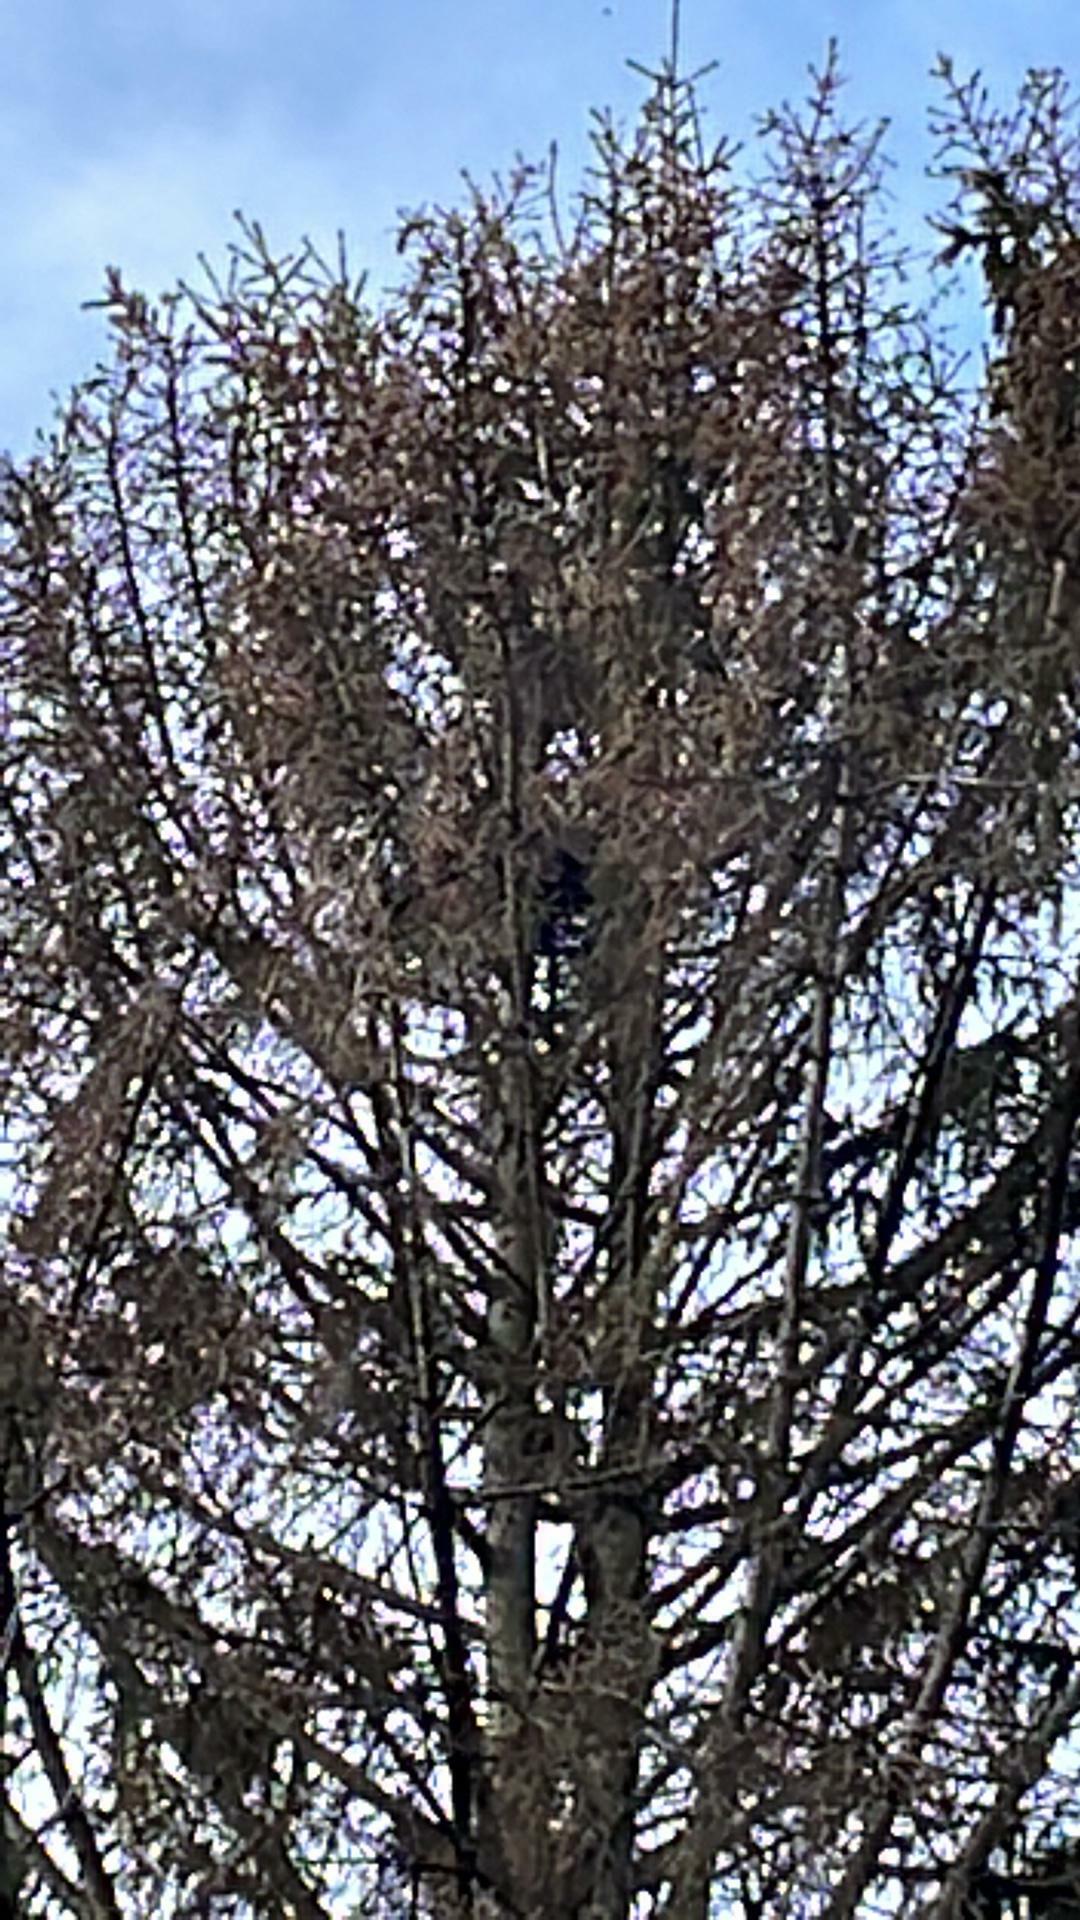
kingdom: Animalia
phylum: Arthropoda
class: Insecta
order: Hymenoptera
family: Vespidae
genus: Vespa
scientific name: Vespa velutina
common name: Asian hornet
